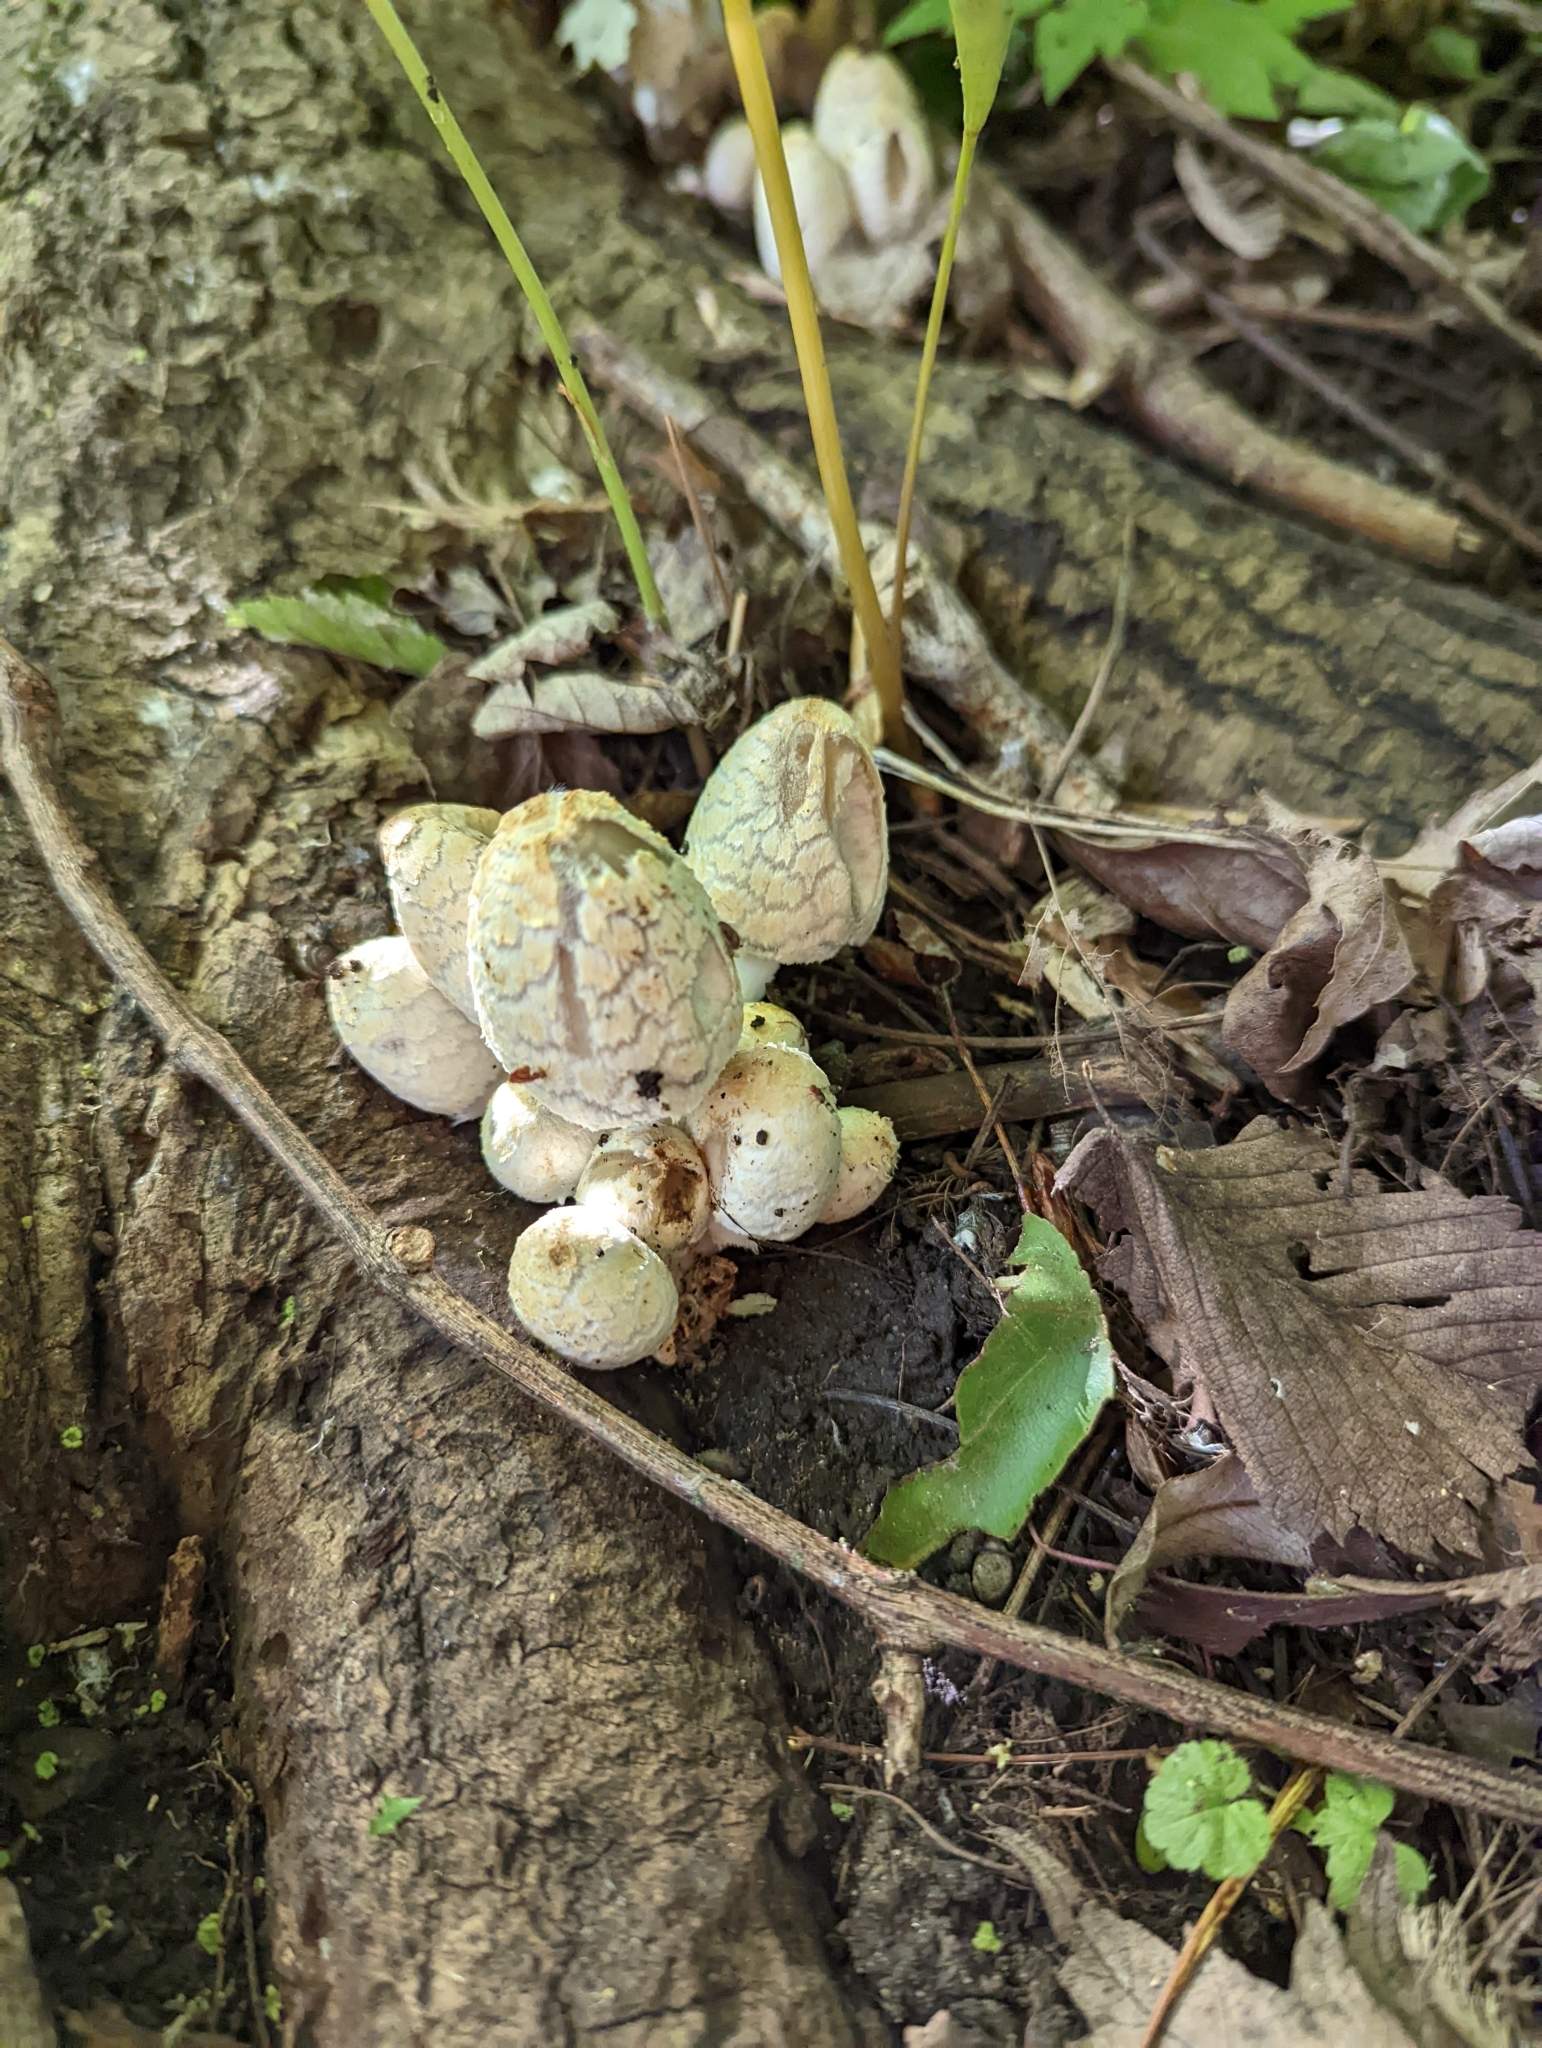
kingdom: Fungi
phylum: Basidiomycota
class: Agaricomycetes
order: Agaricales
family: Psathyrellaceae
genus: Coprinopsis
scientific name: Coprinopsis variegata
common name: Scaly ink cap
